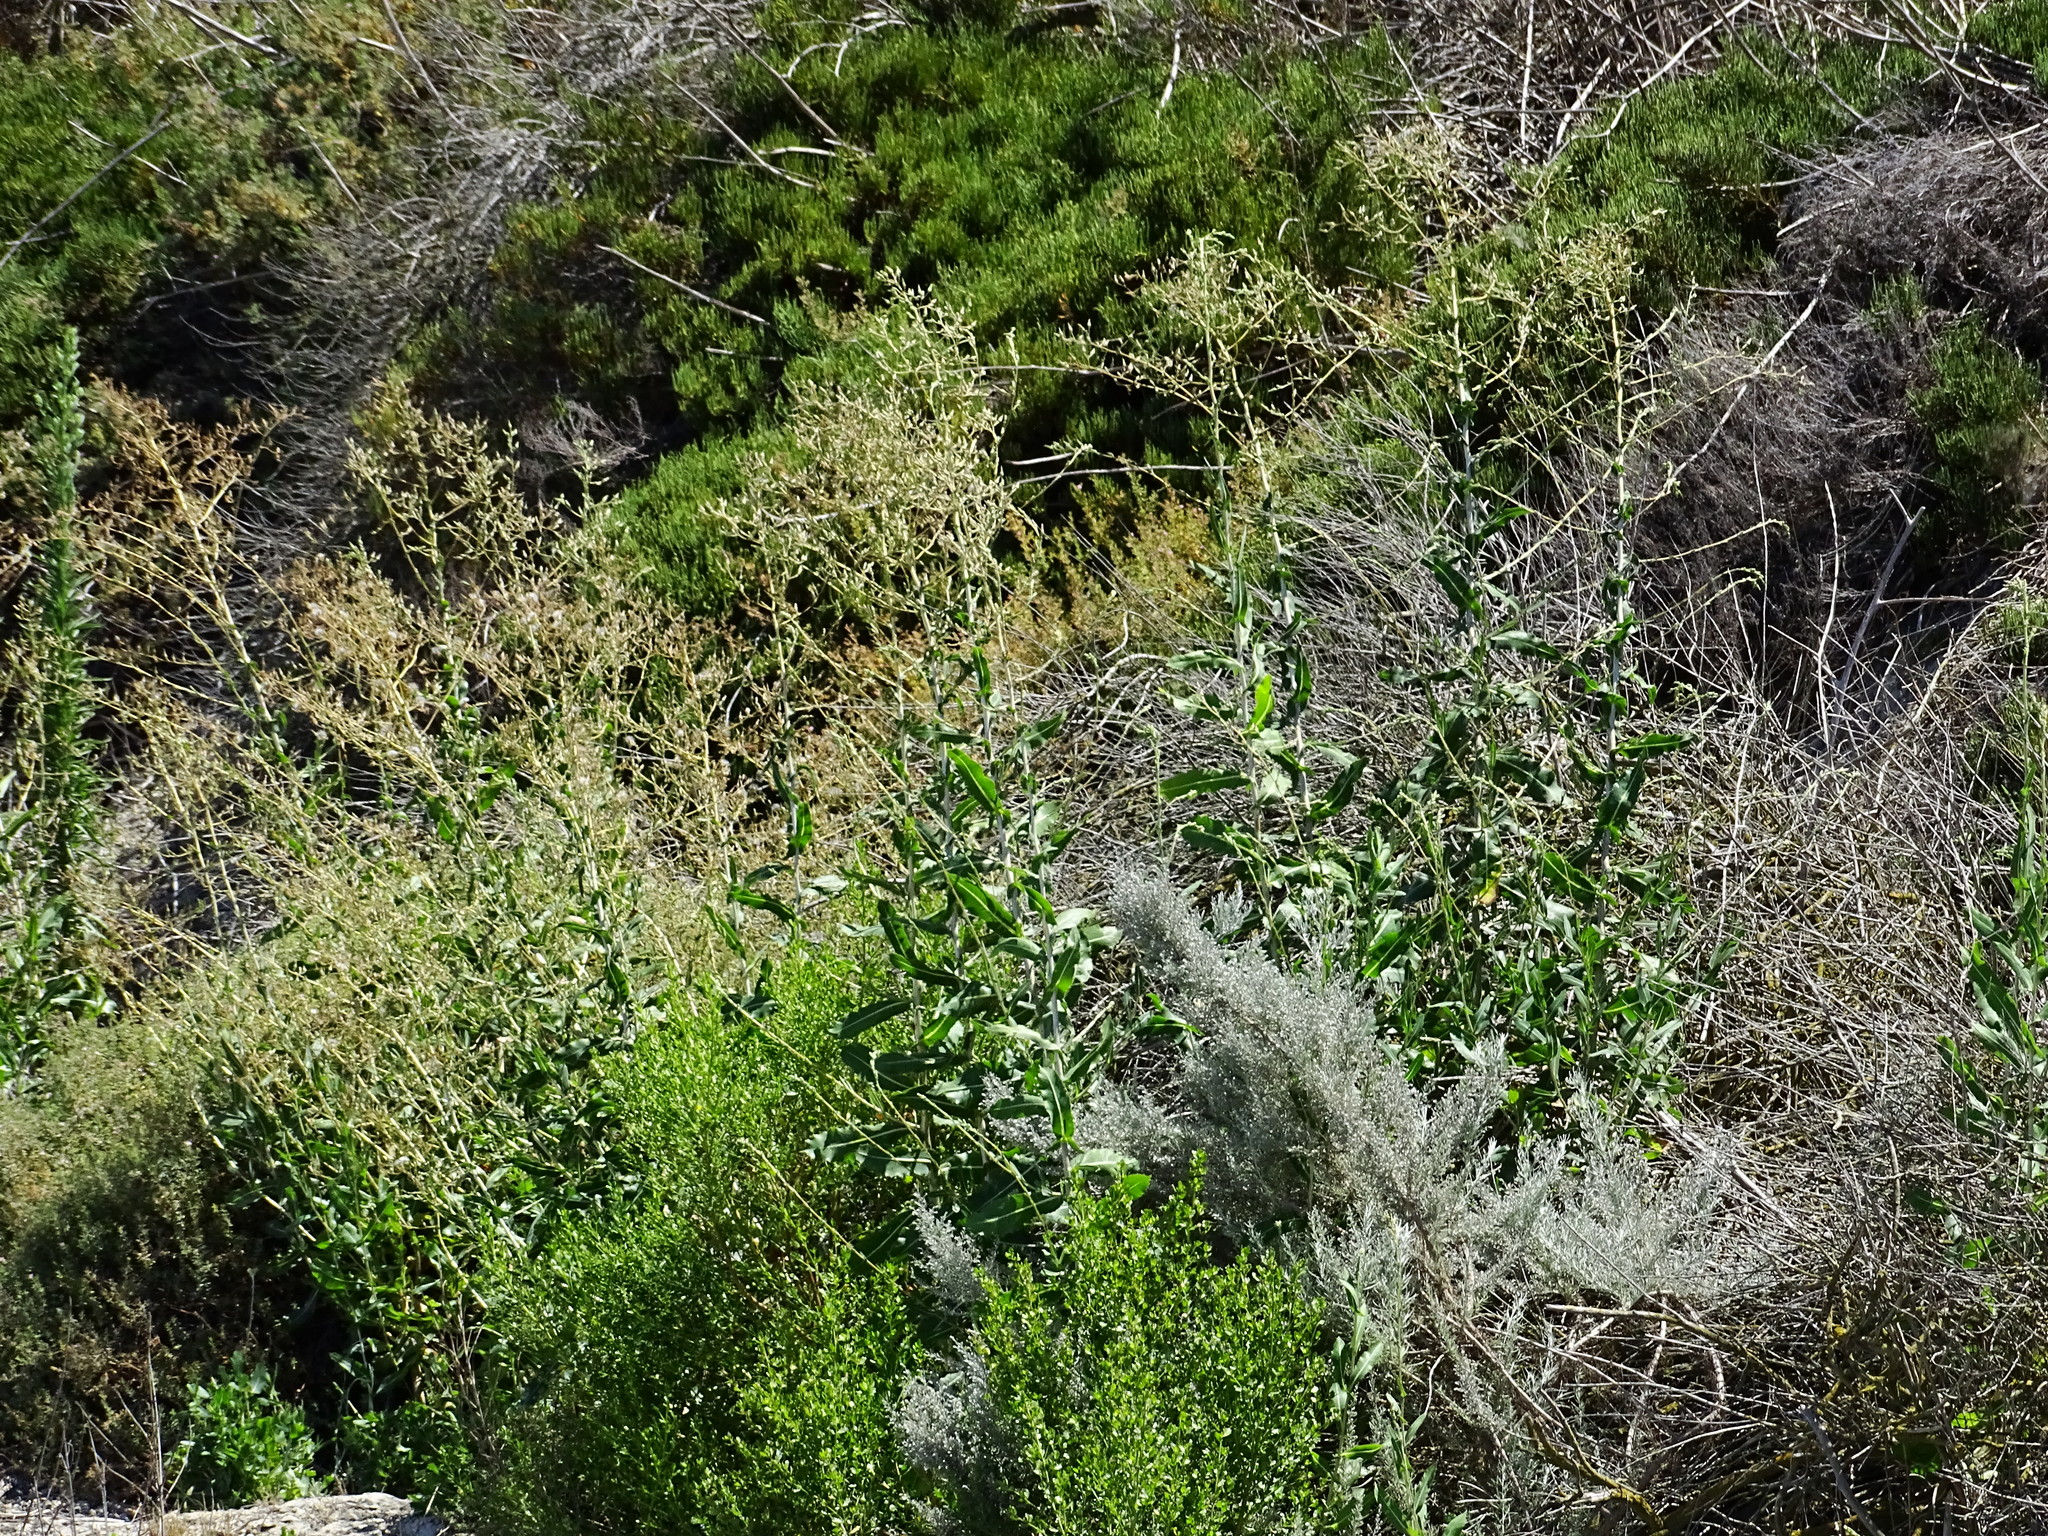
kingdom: Plantae
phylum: Tracheophyta
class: Magnoliopsida
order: Asterales
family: Asteraceae
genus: Lactuca
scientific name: Lactuca serriola
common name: Prickly lettuce
